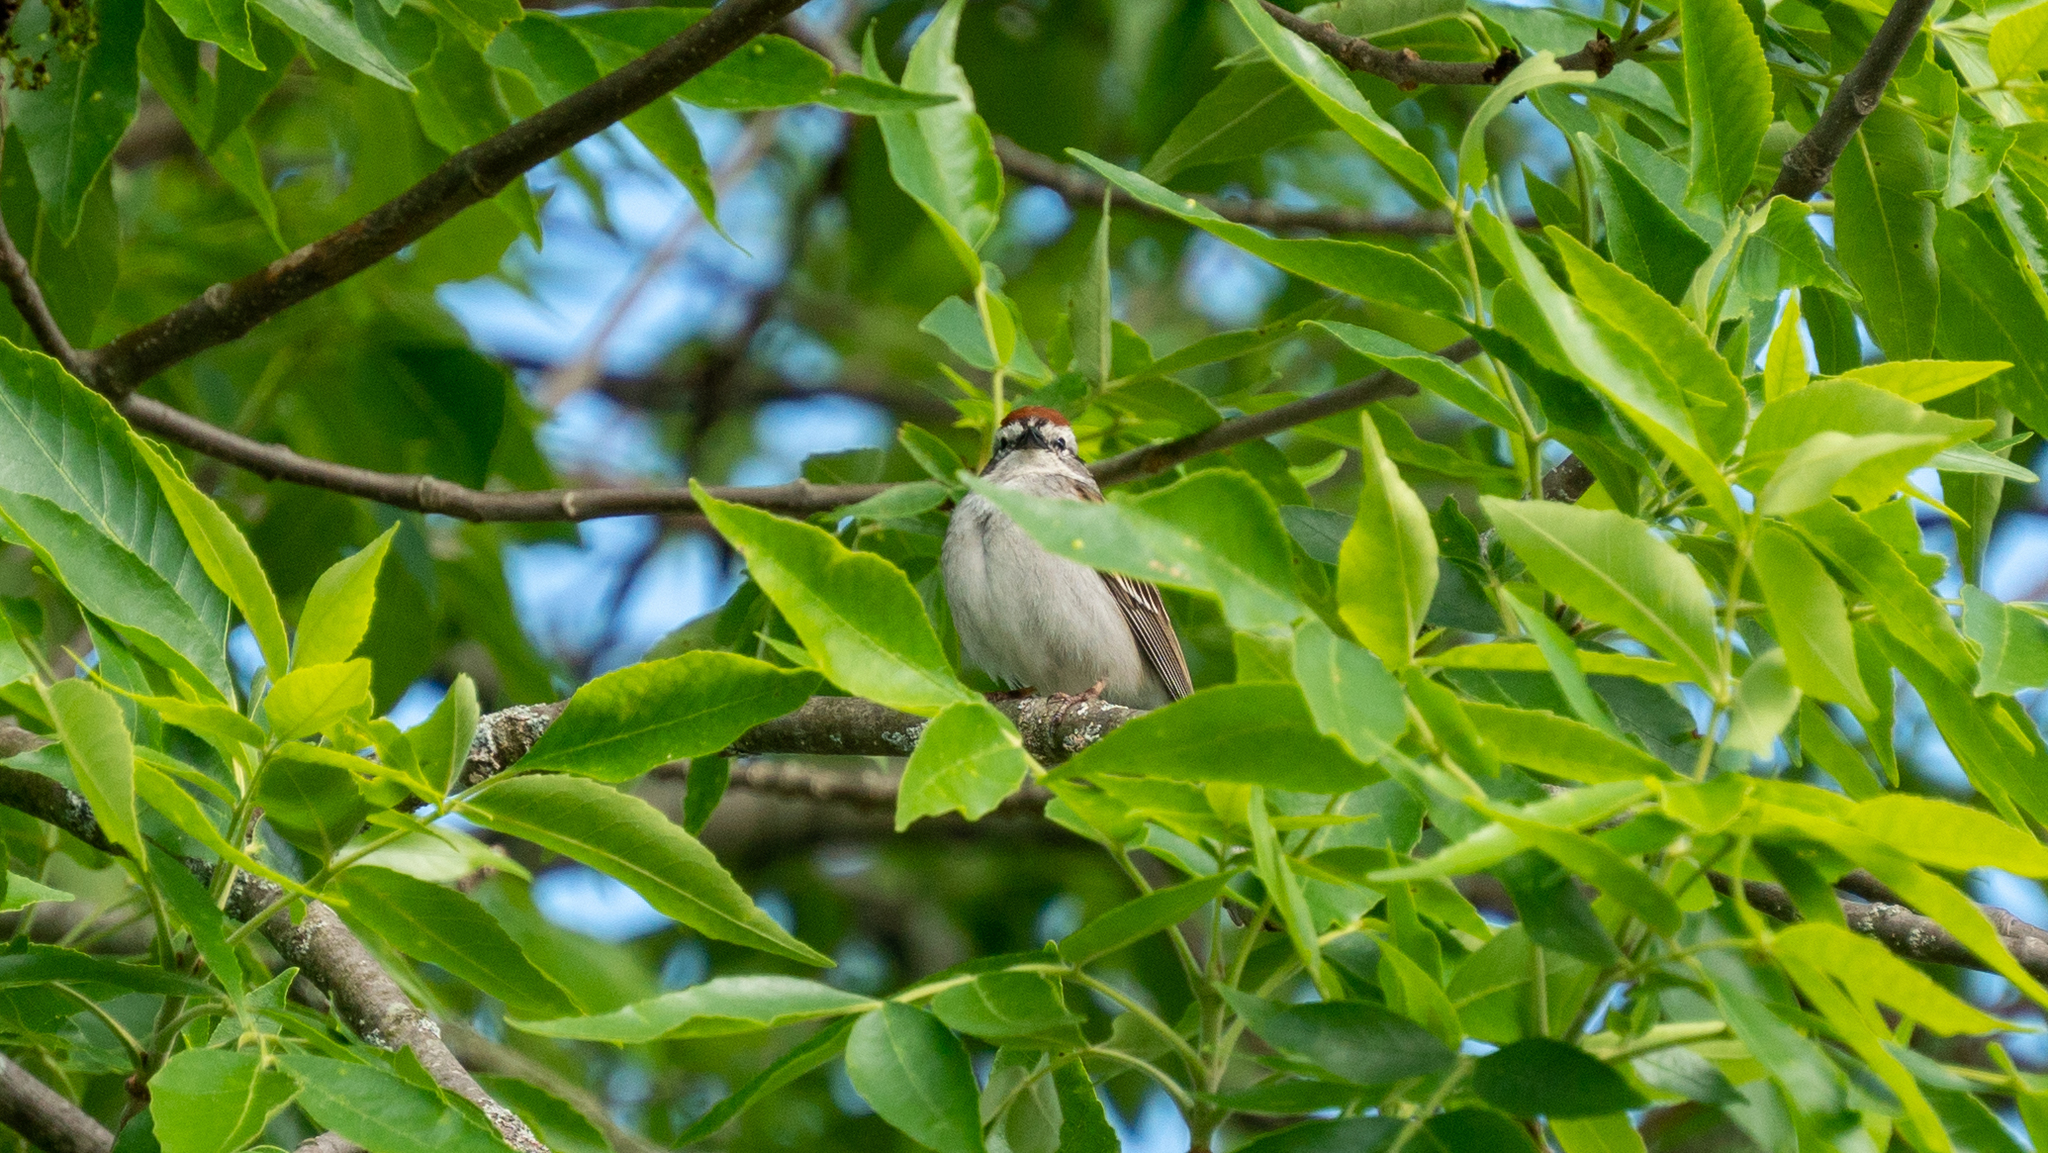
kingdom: Animalia
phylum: Chordata
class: Aves
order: Passeriformes
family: Passerellidae
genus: Spizella
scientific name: Spizella passerina
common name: Chipping sparrow
